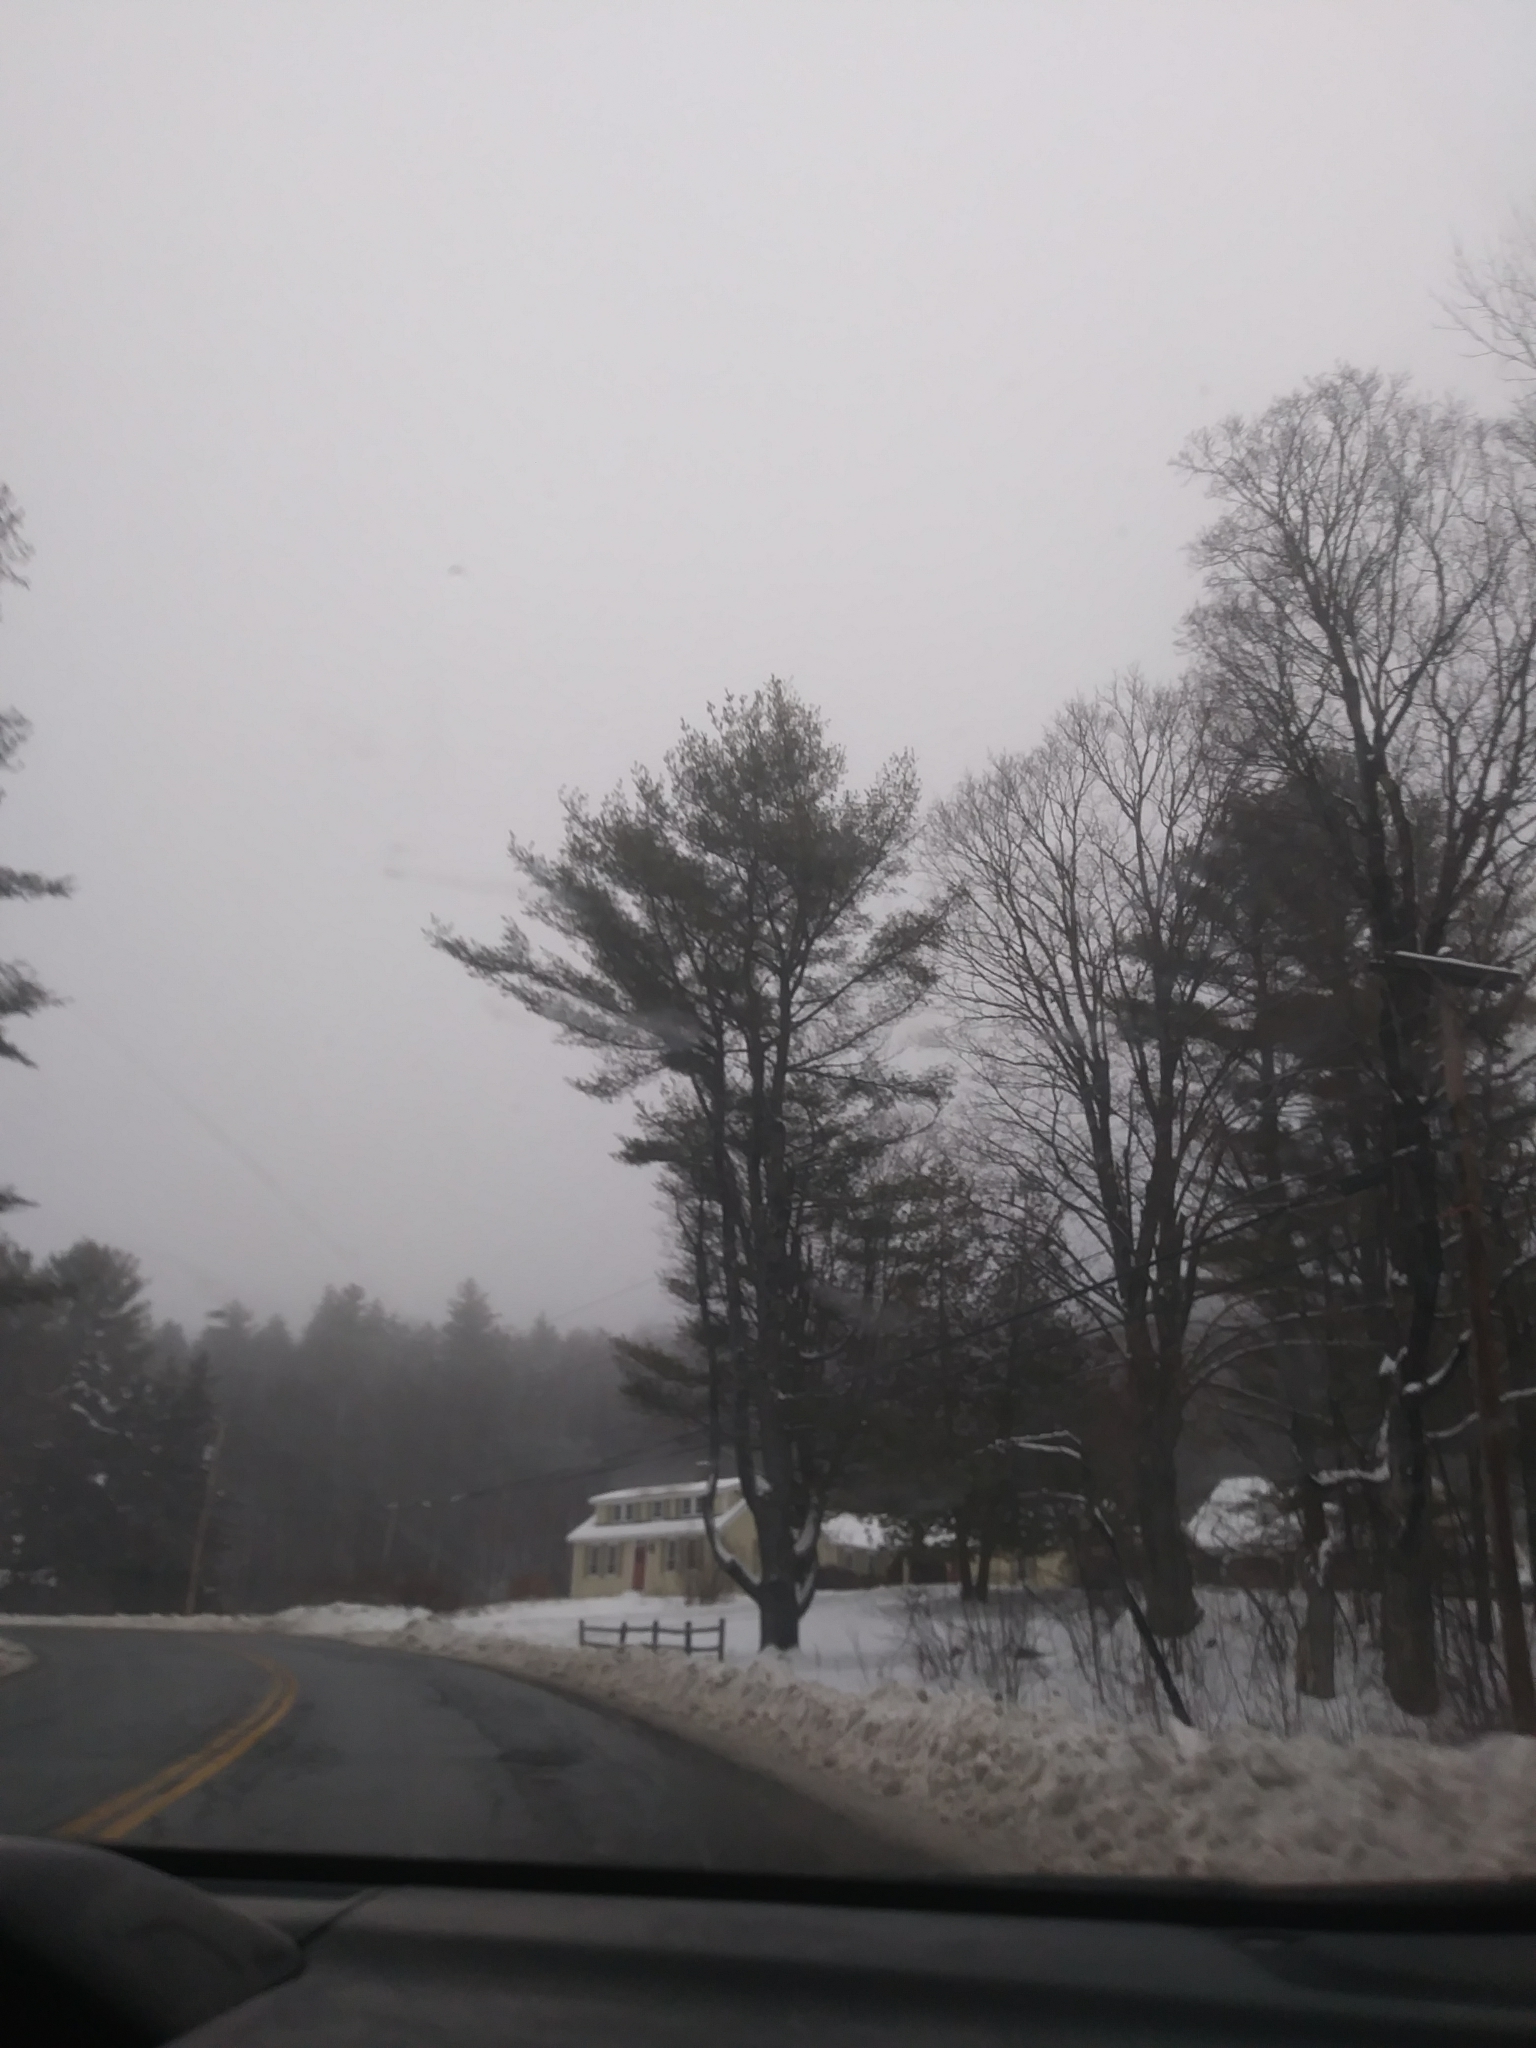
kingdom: Plantae
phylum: Tracheophyta
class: Pinopsida
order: Pinales
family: Pinaceae
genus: Pinus
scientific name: Pinus strobus
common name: Weymouth pine
